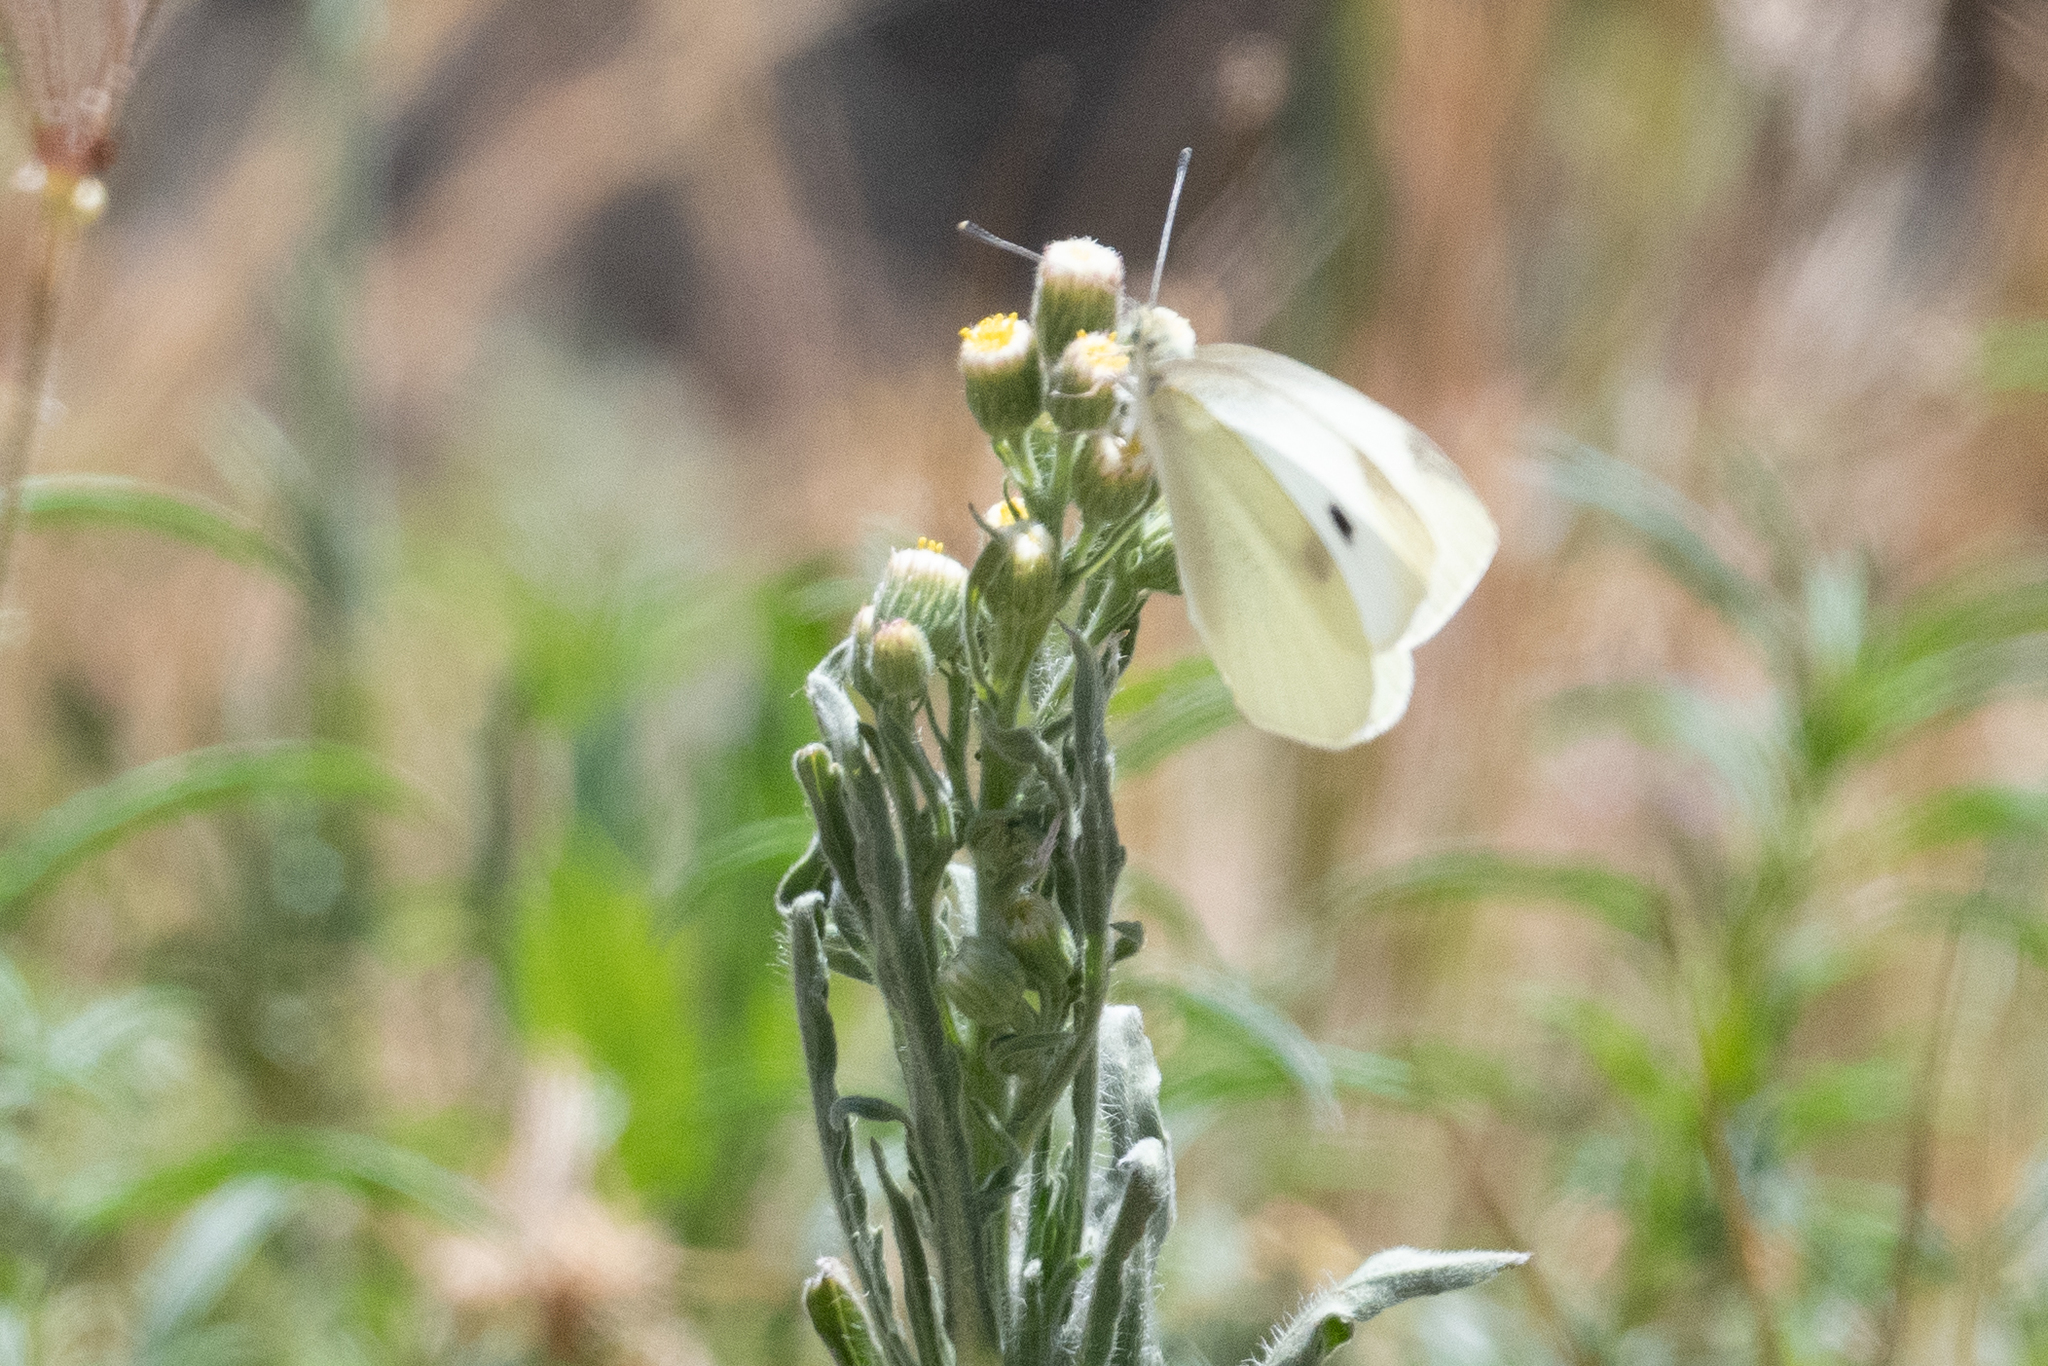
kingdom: Animalia
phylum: Arthropoda
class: Insecta
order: Lepidoptera
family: Pieridae
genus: Pieris
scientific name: Pieris rapae
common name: Small white
